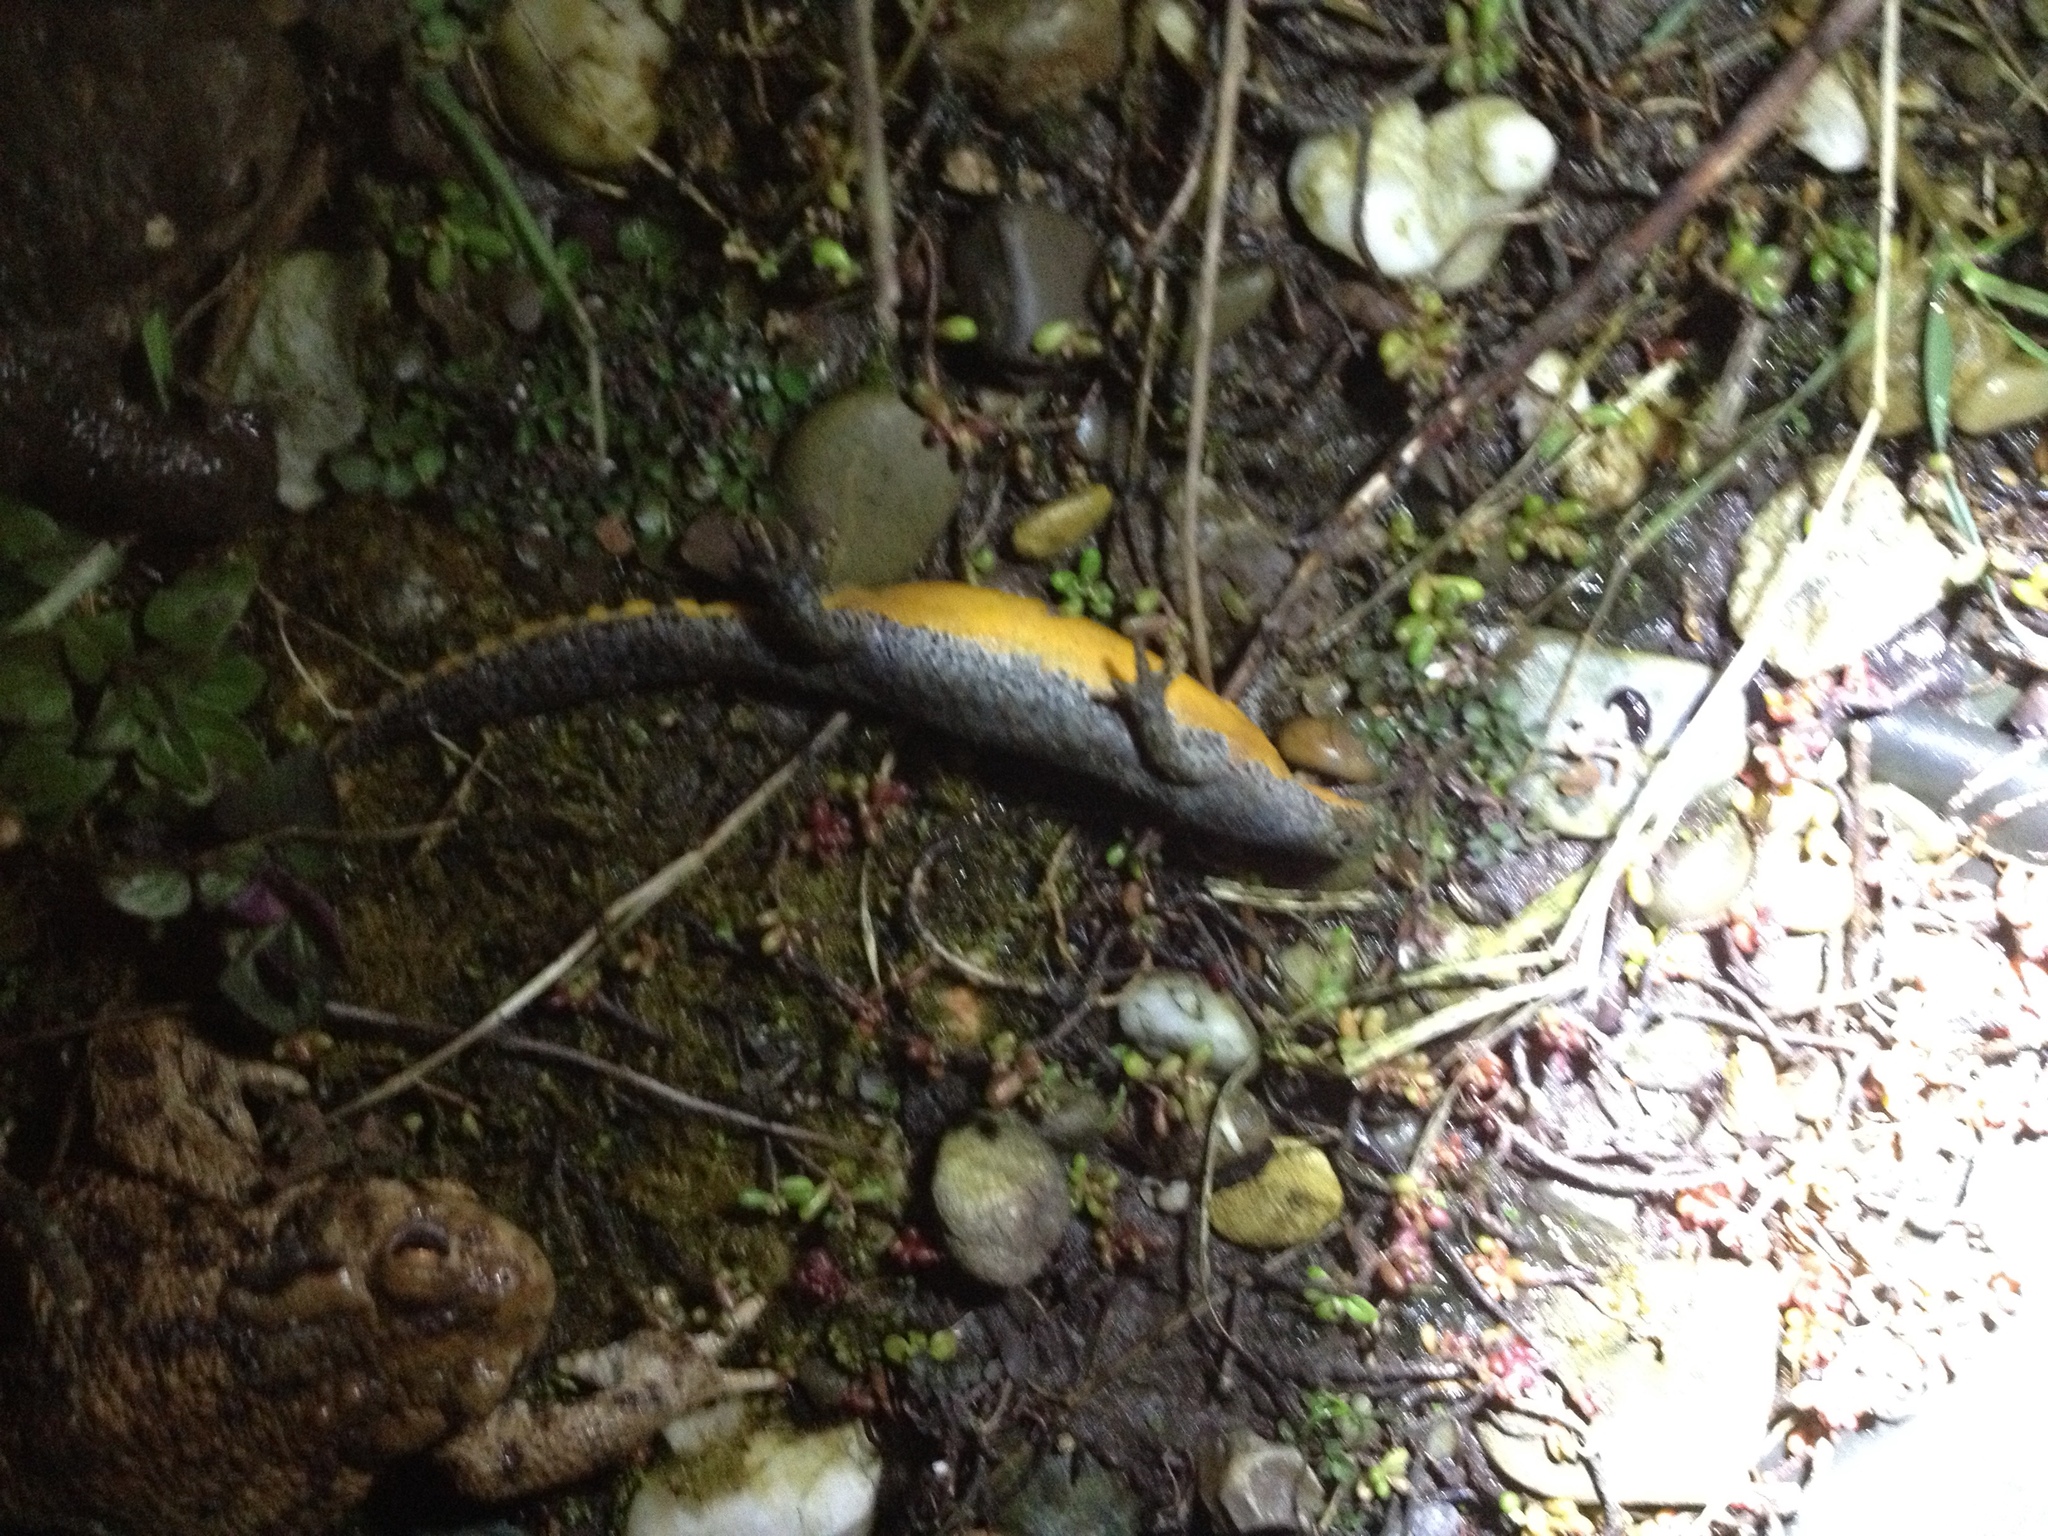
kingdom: Animalia
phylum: Chordata
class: Amphibia
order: Caudata
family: Salamandridae
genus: Ichthyosaura
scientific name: Ichthyosaura alpestris
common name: Alpine newt
